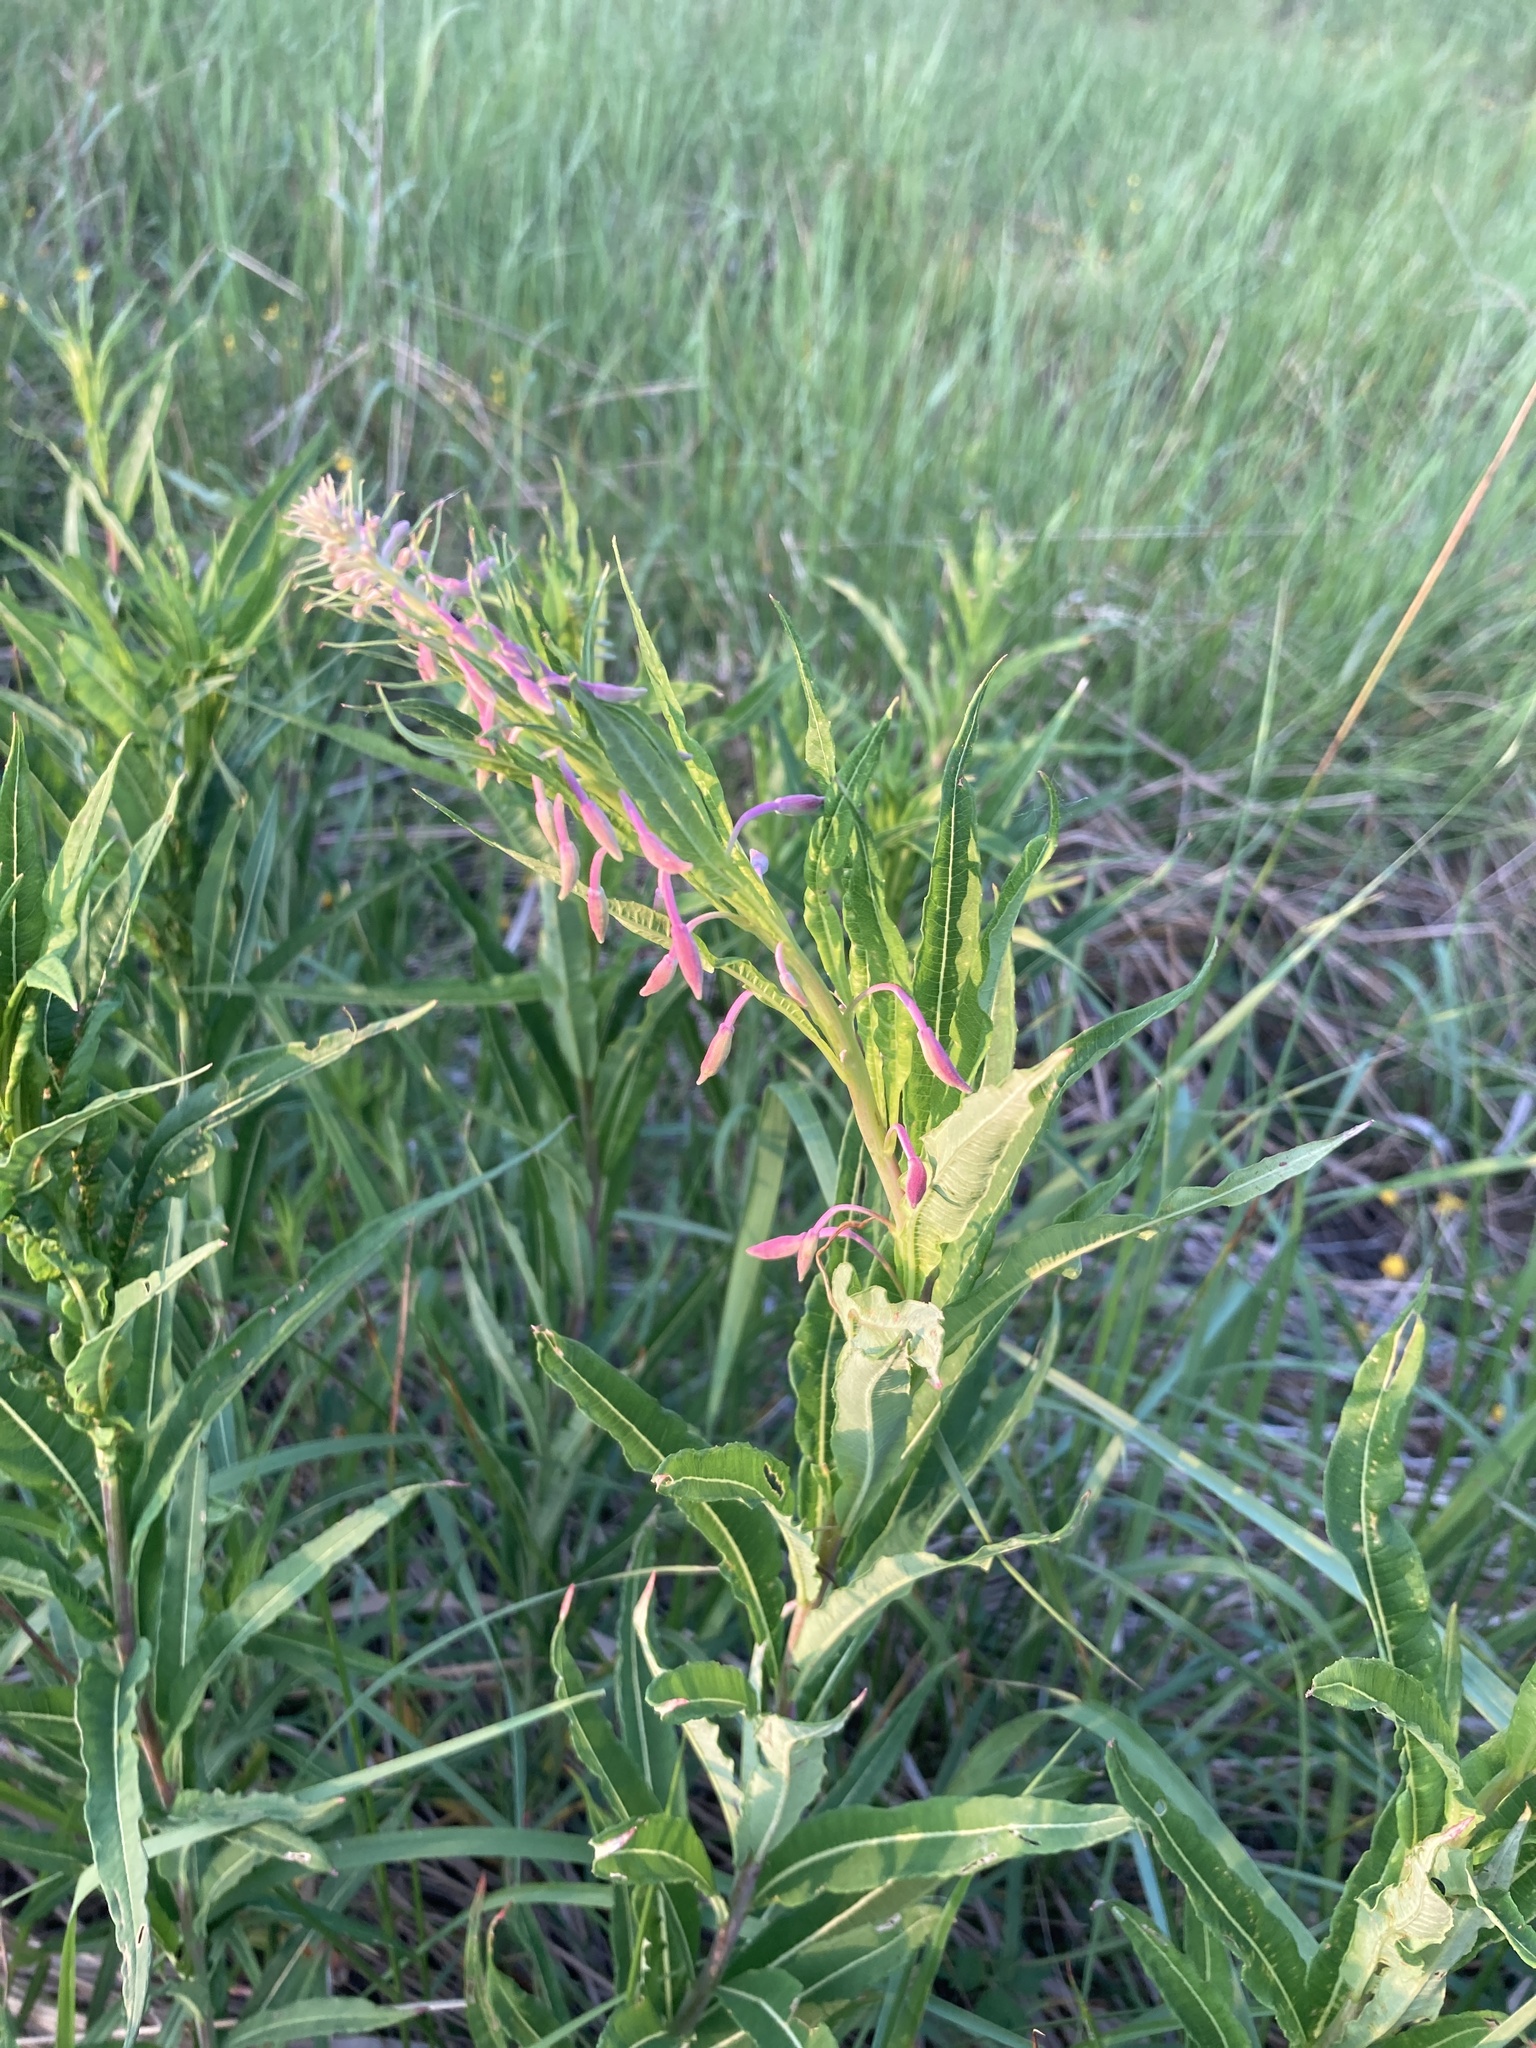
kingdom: Plantae
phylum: Tracheophyta
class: Magnoliopsida
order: Myrtales
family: Onagraceae
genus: Chamaenerion
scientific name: Chamaenerion angustifolium
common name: Fireweed
